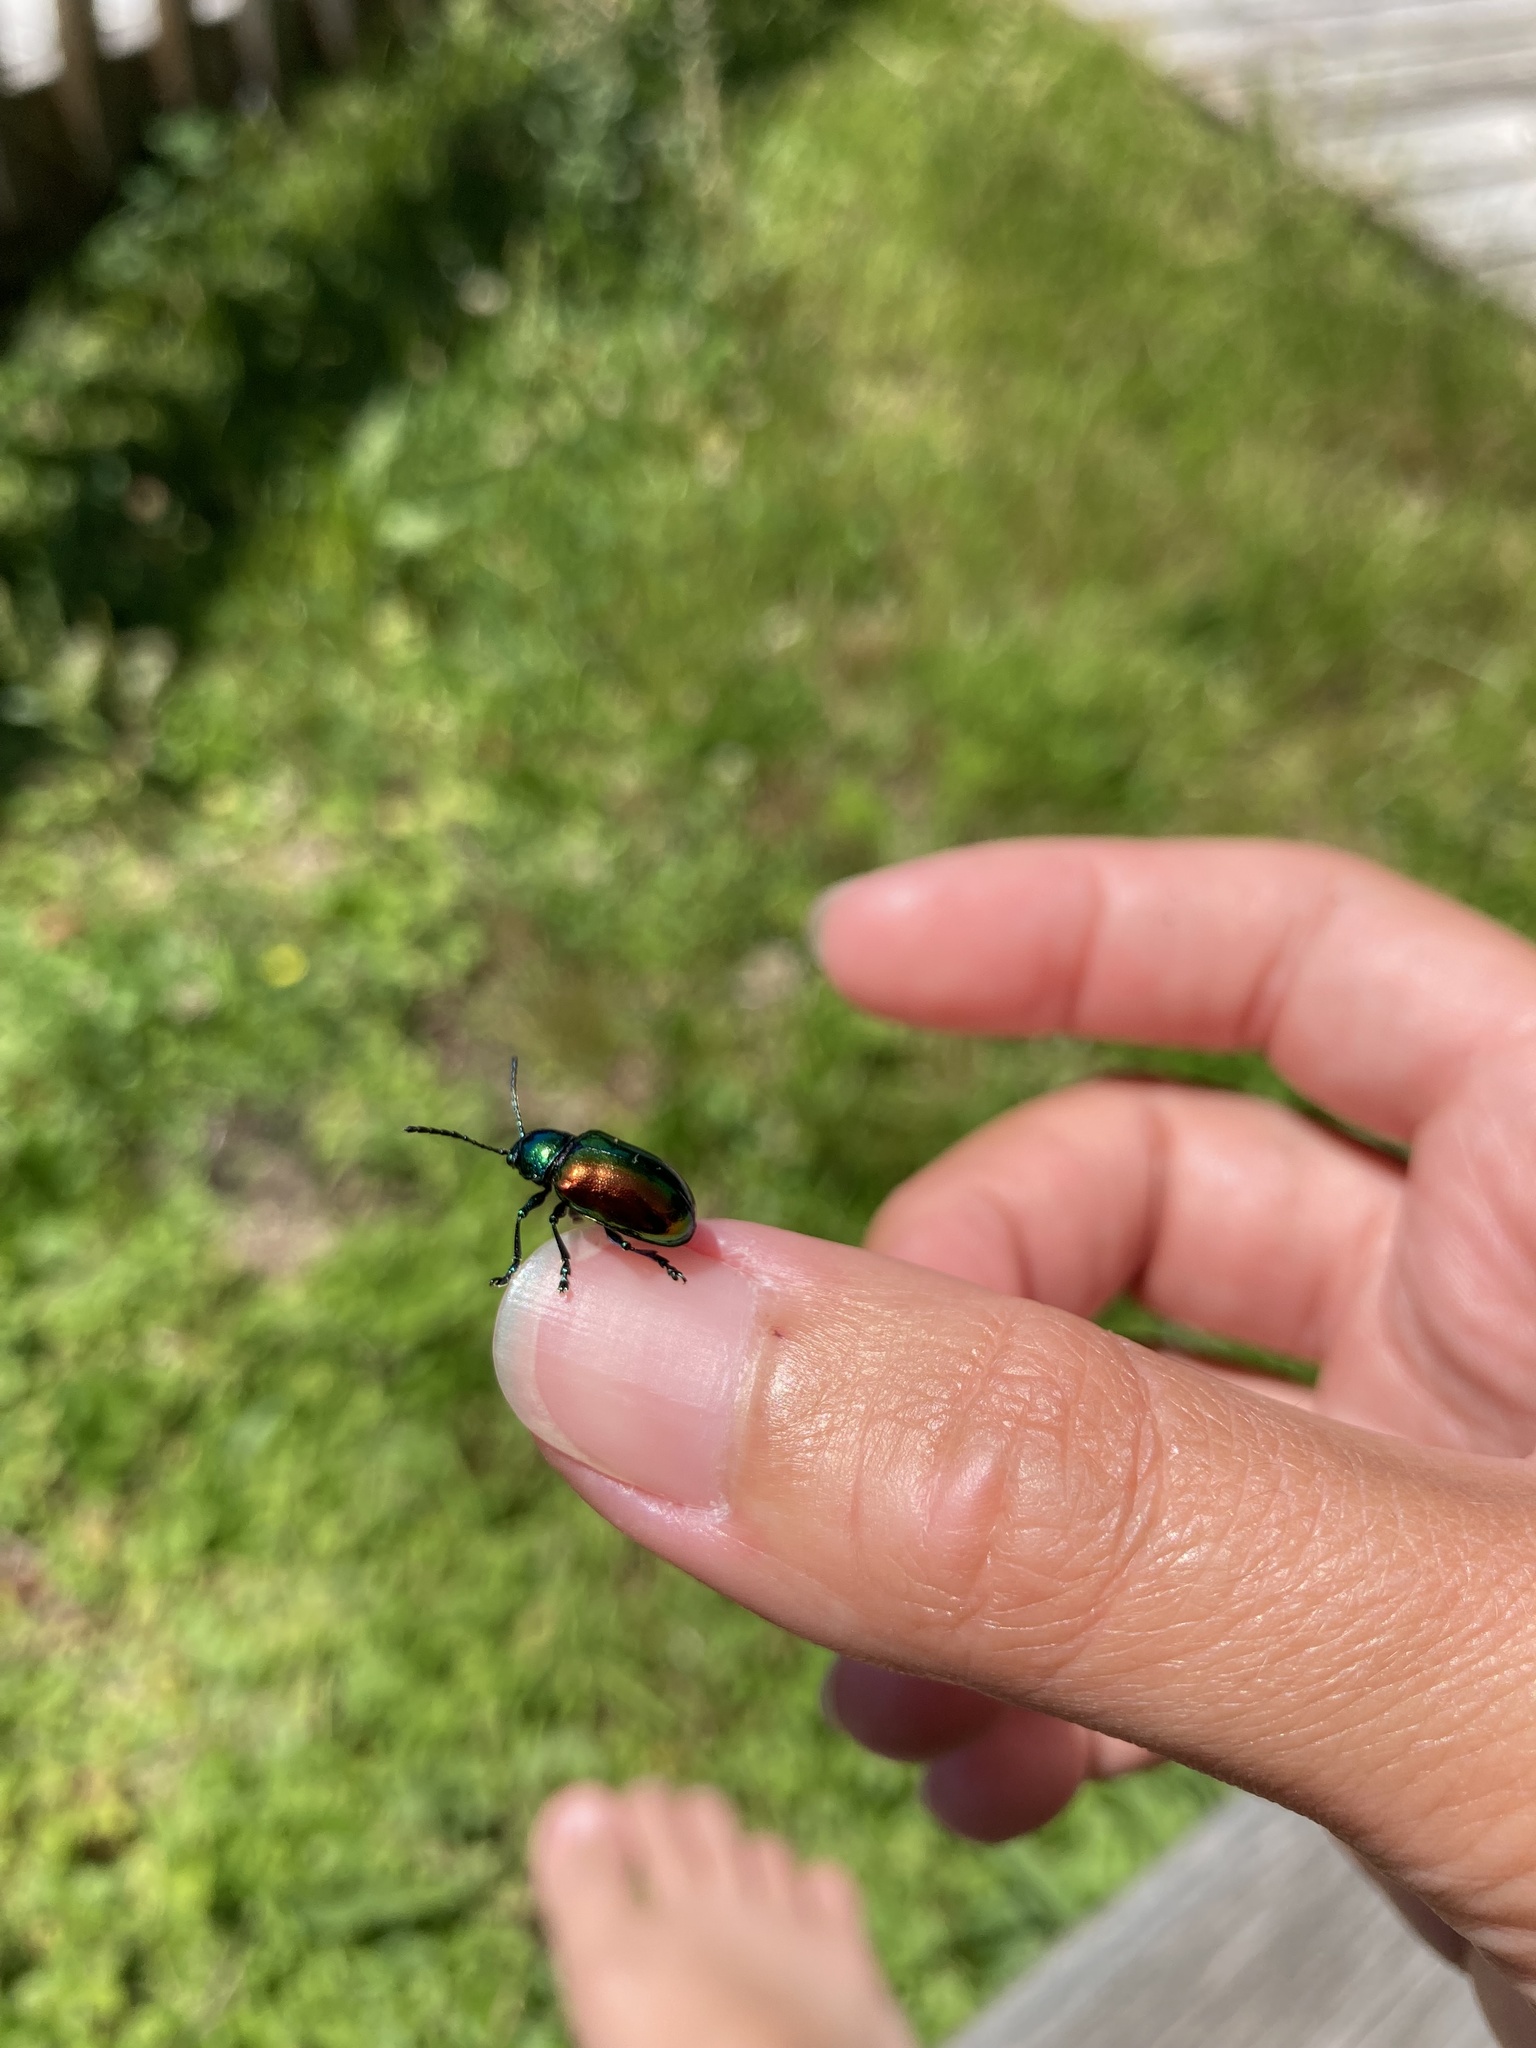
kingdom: Animalia
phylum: Arthropoda
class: Insecta
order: Coleoptera
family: Chrysomelidae
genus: Chrysochus
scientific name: Chrysochus auratus
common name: Dogbane leaf beetle
